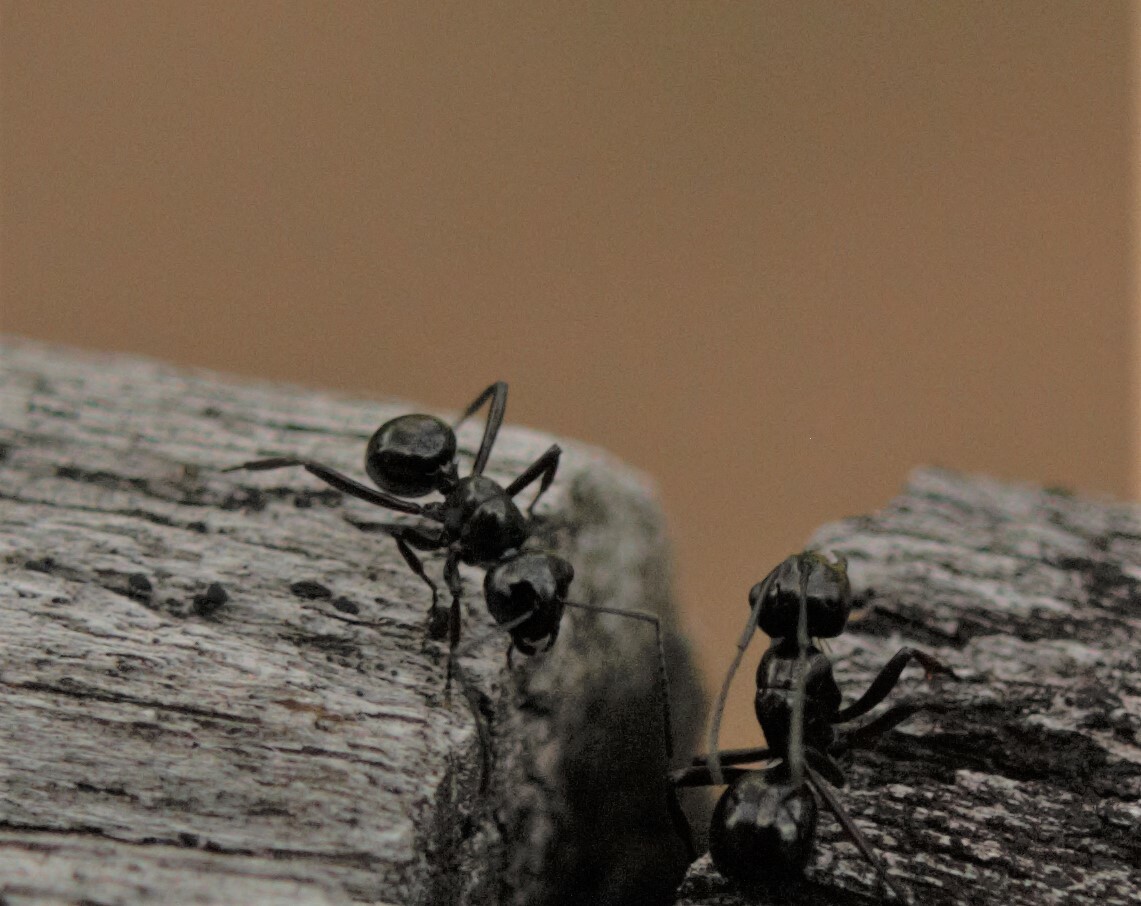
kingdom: Animalia
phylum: Arthropoda
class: Insecta
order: Hymenoptera
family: Formicidae
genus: Polyrhachis
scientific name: Polyrhachis australis
